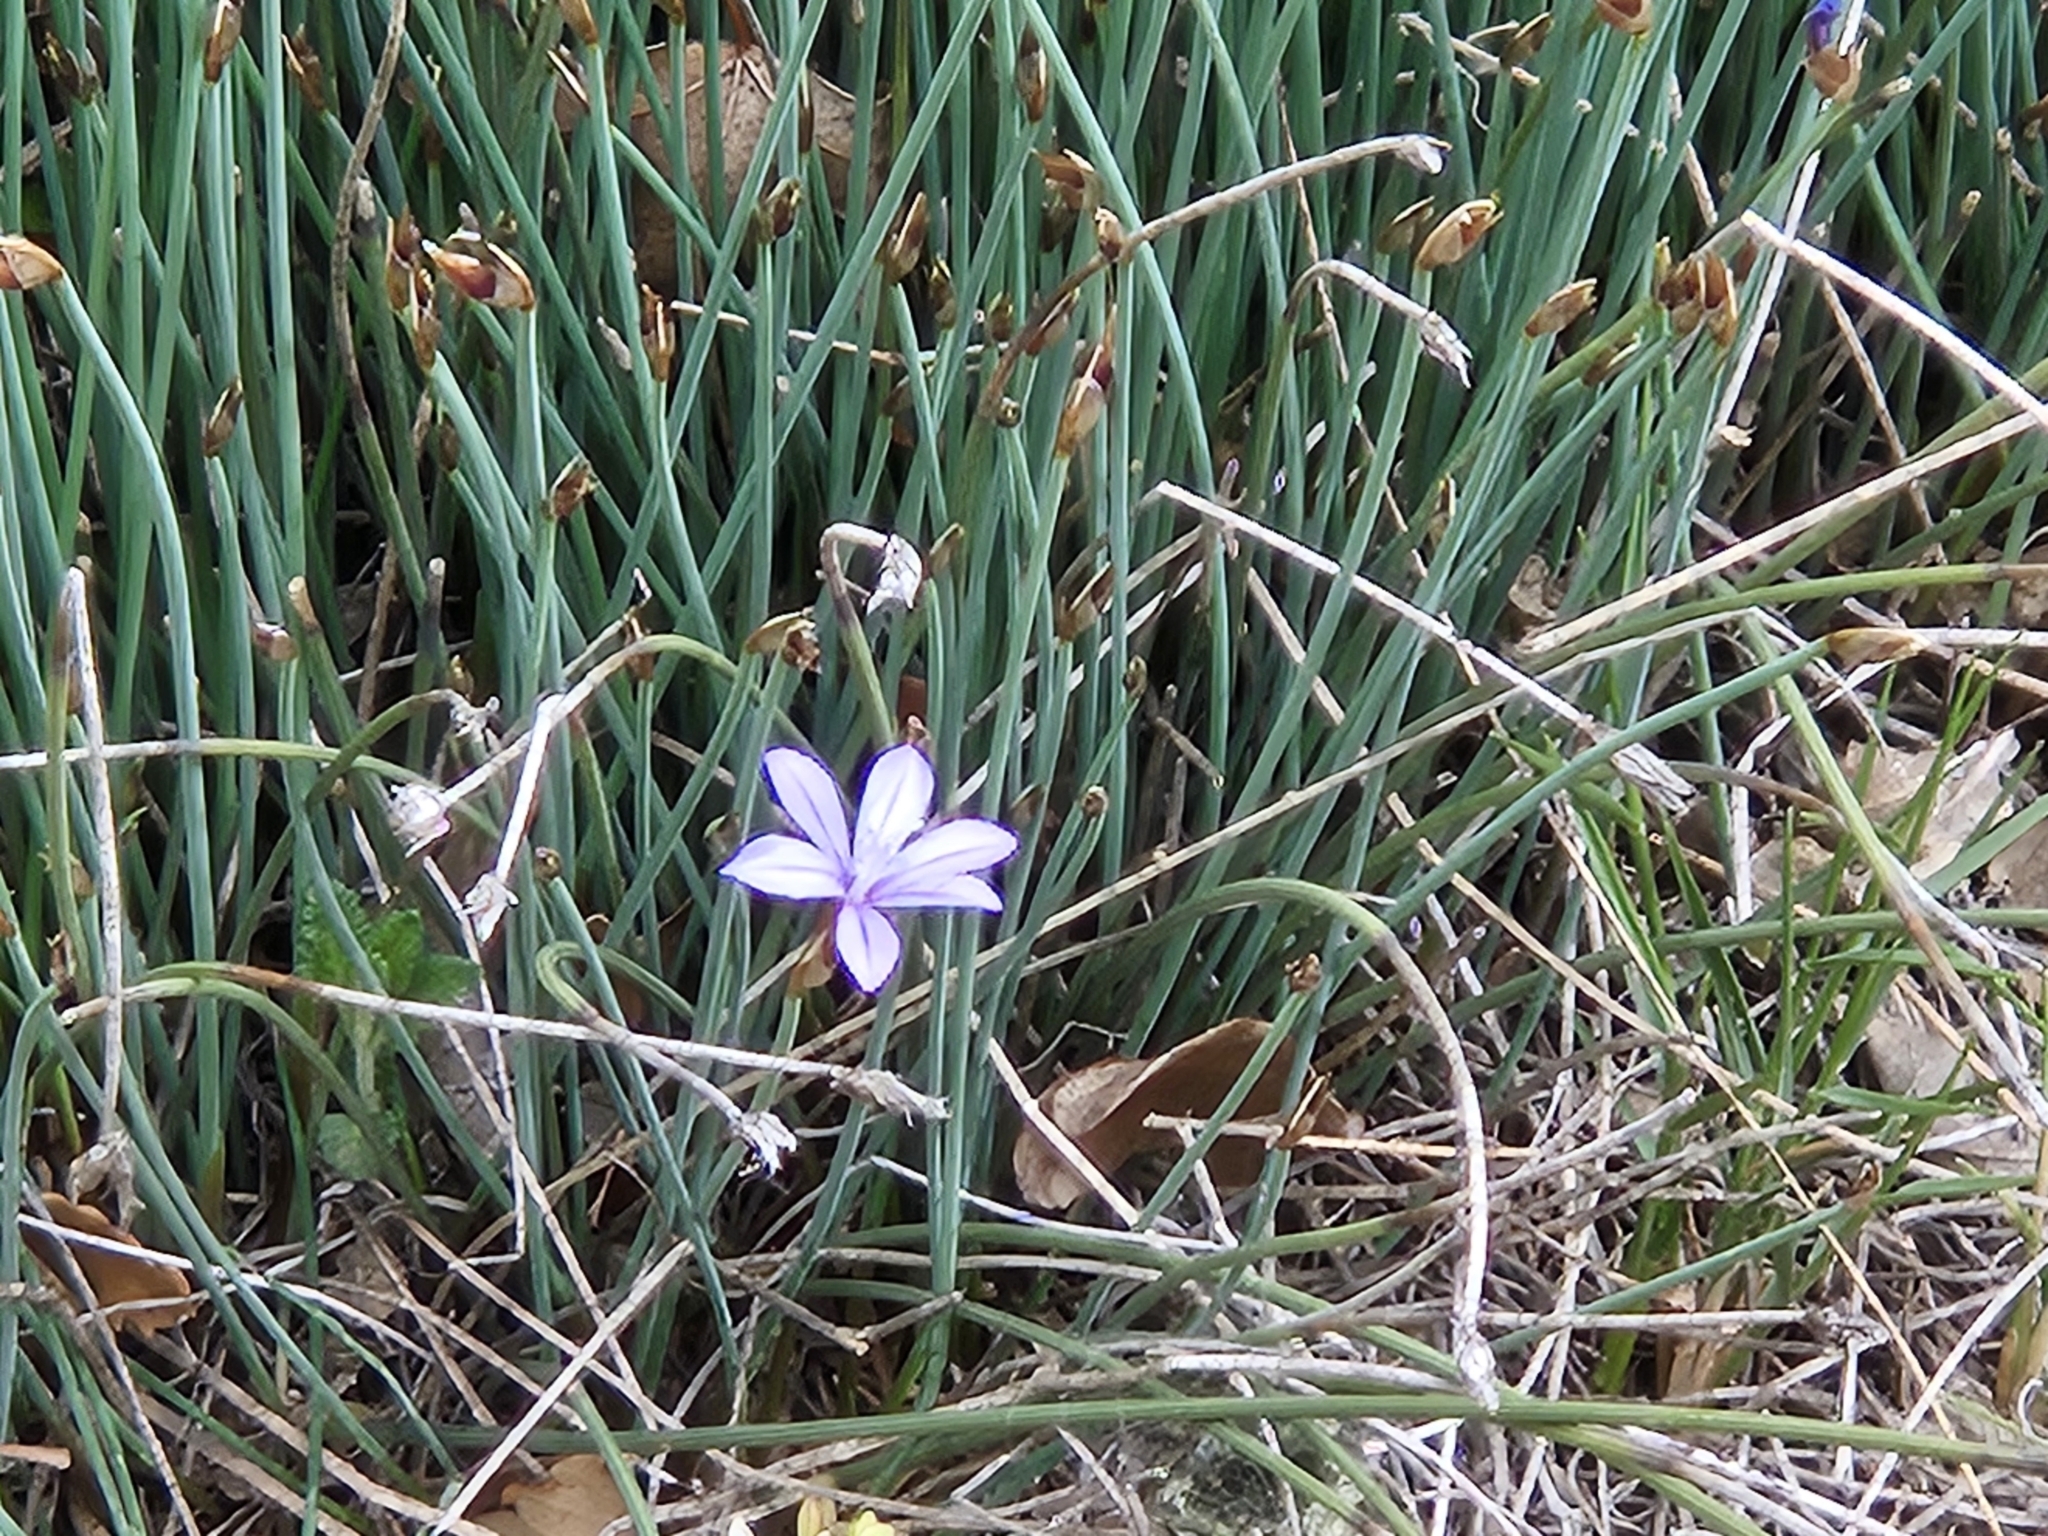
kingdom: Plantae
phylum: Tracheophyta
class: Liliopsida
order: Asparagales
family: Asparagaceae
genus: Aphyllanthes
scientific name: Aphyllanthes monspeliensis
